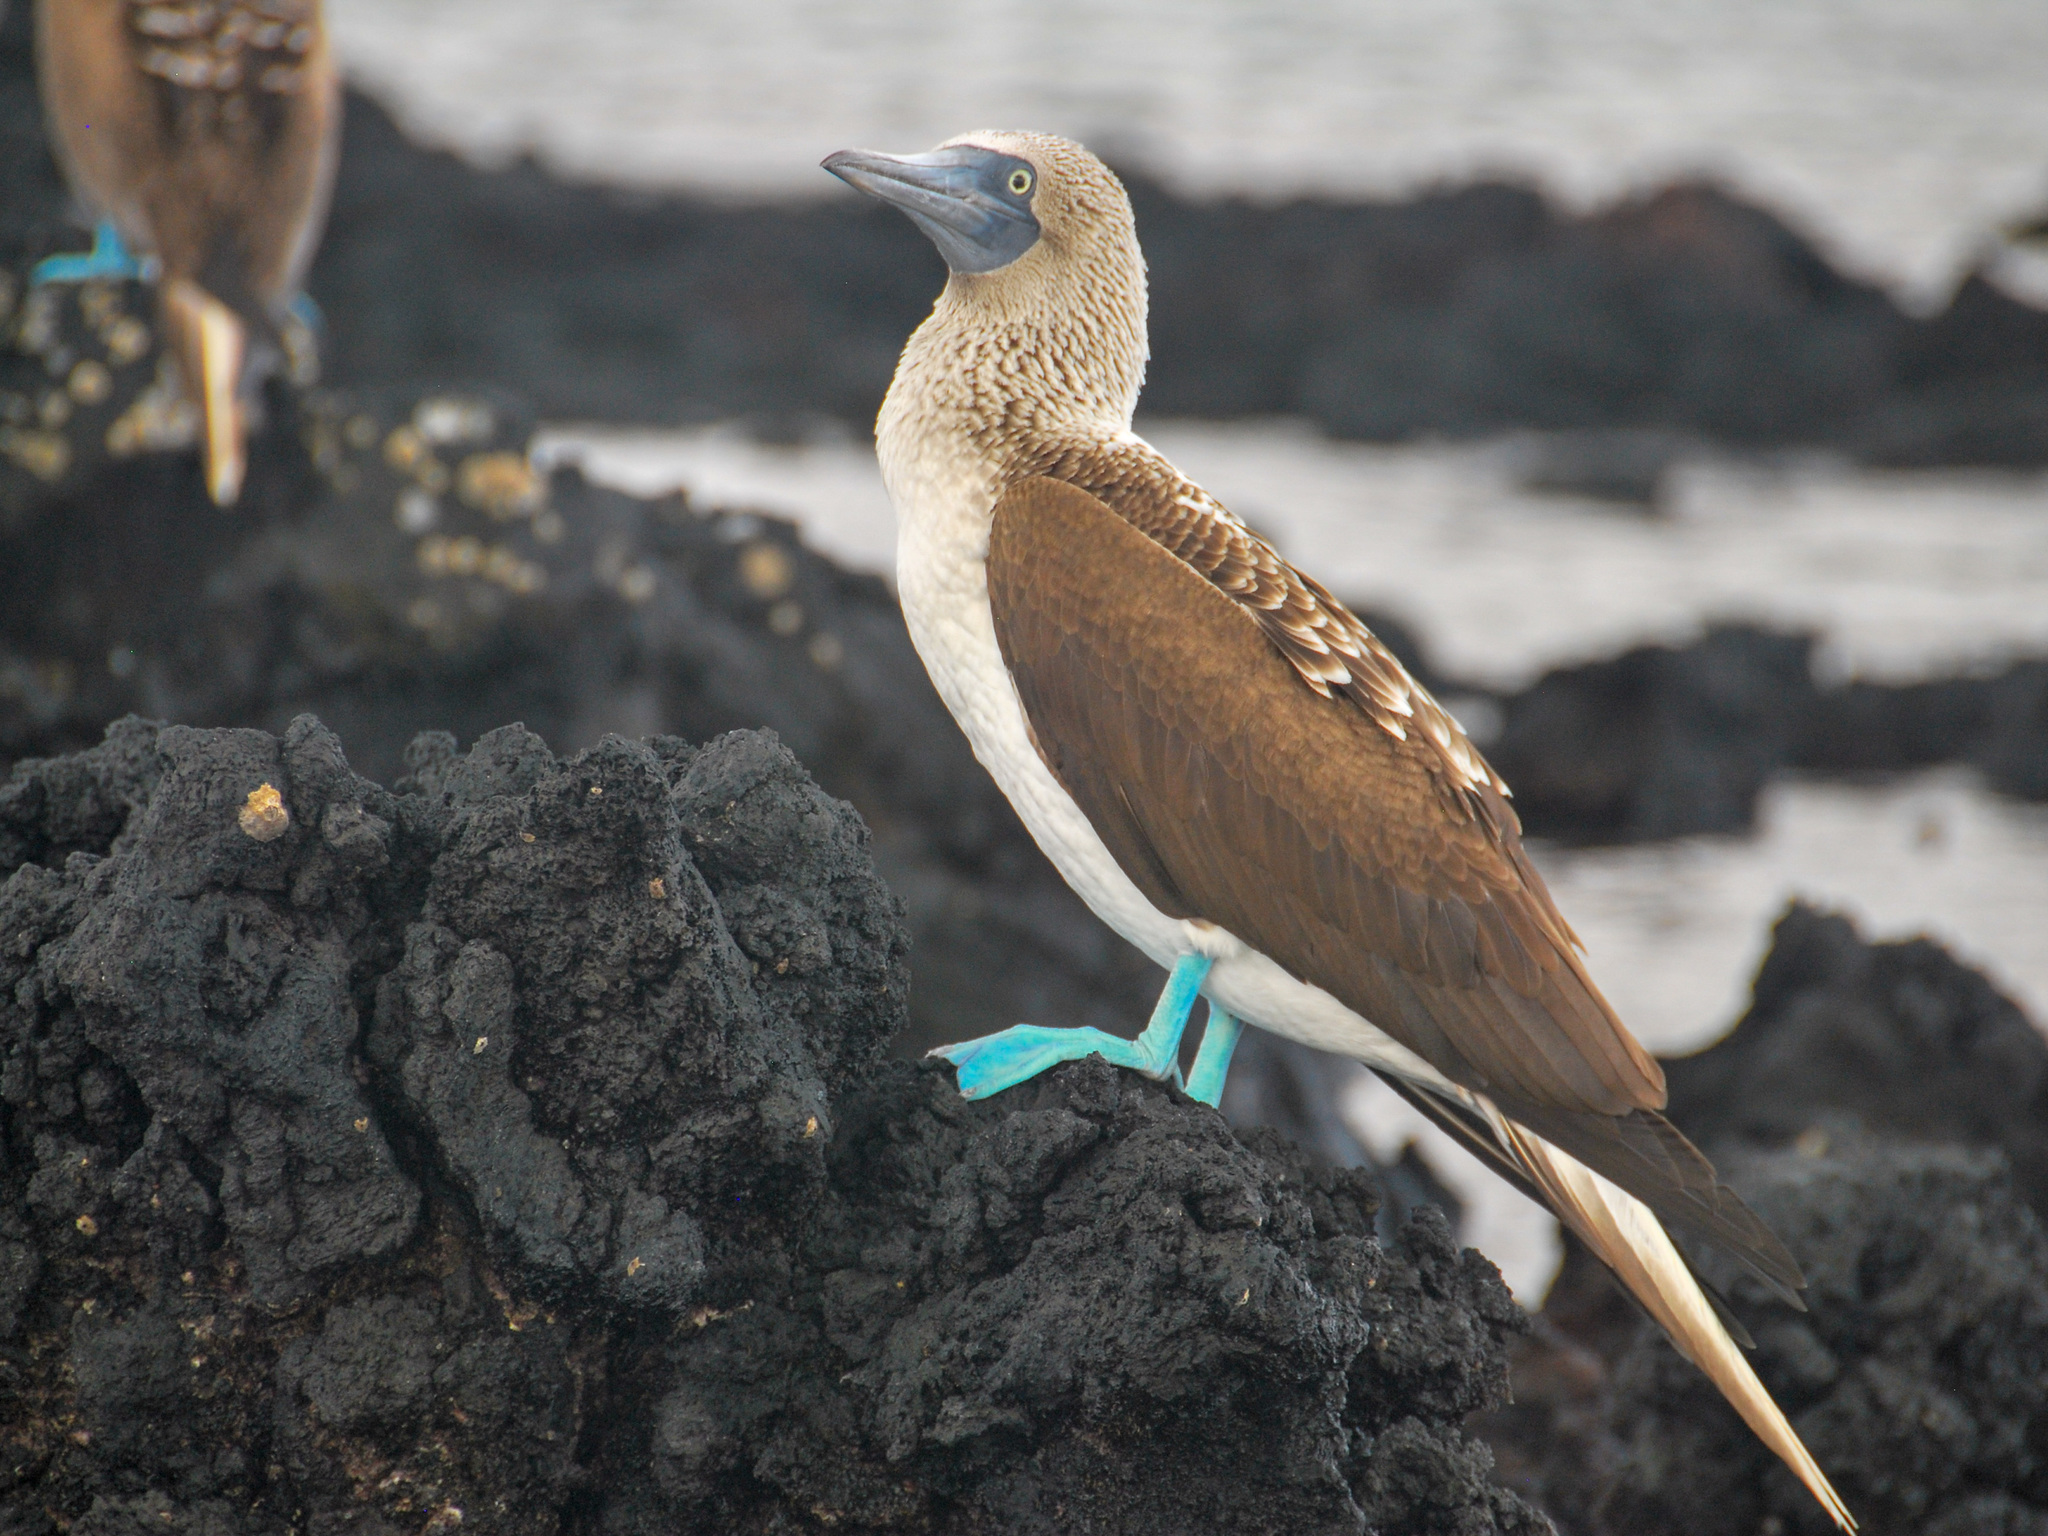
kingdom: Animalia
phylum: Chordata
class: Aves
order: Suliformes
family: Sulidae
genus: Sula
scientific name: Sula nebouxii
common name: Blue-footed booby
